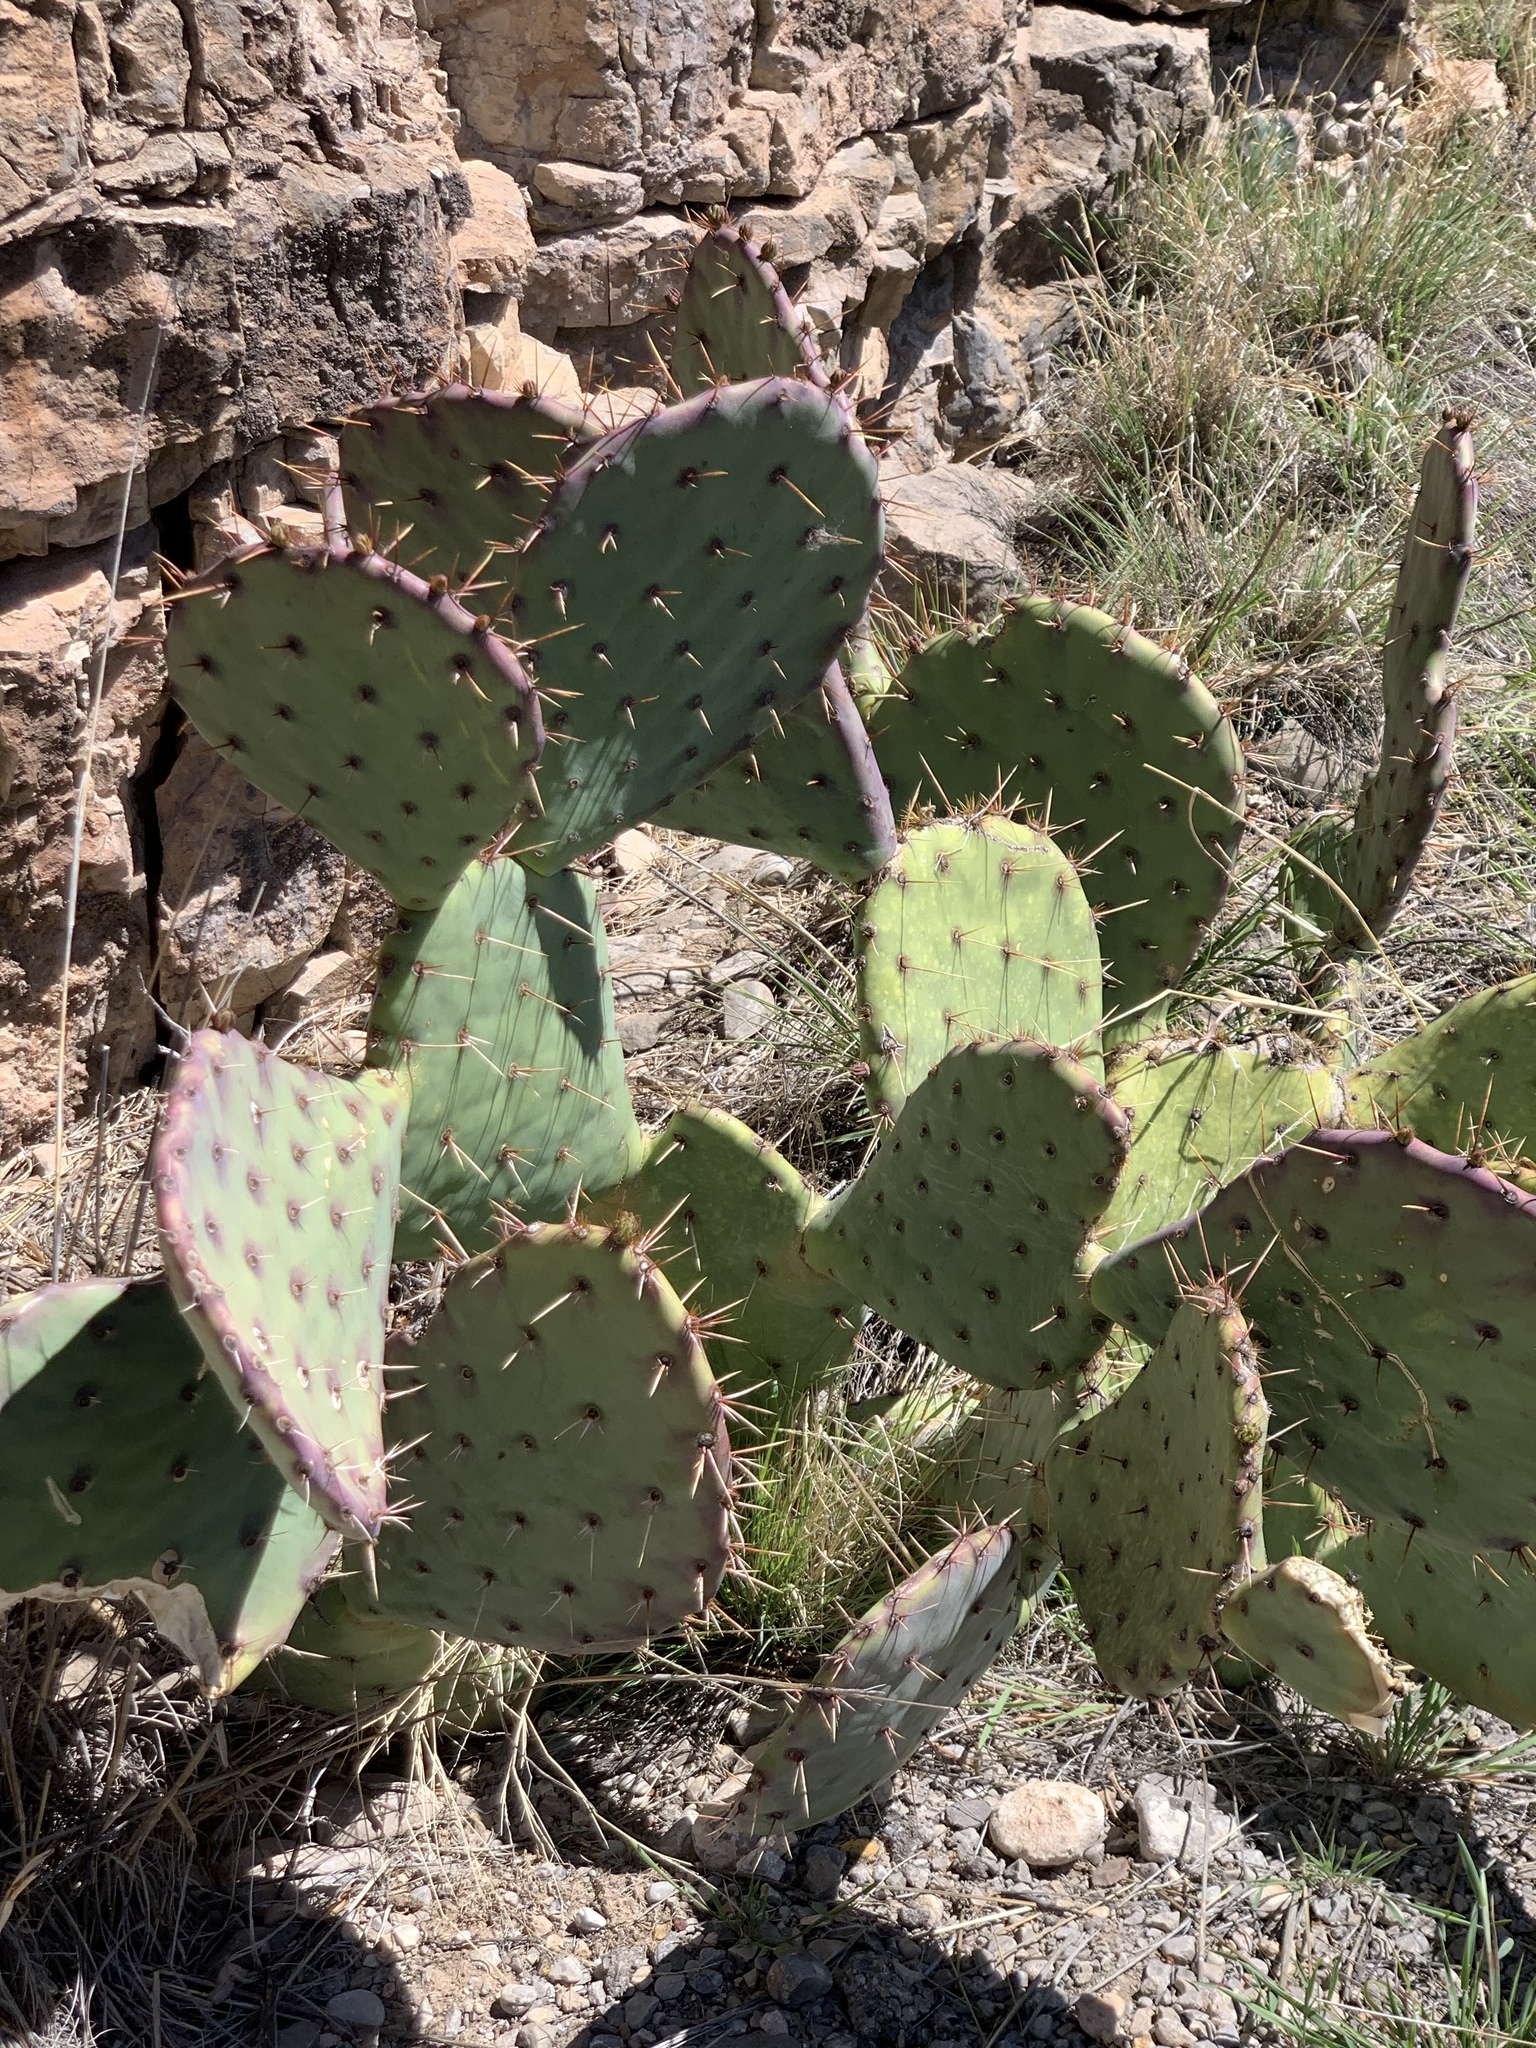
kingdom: Plantae
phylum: Tracheophyta
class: Magnoliopsida
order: Caryophyllales
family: Cactaceae
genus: Opuntia
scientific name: Opuntia engelmannii
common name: Cactus-apple
